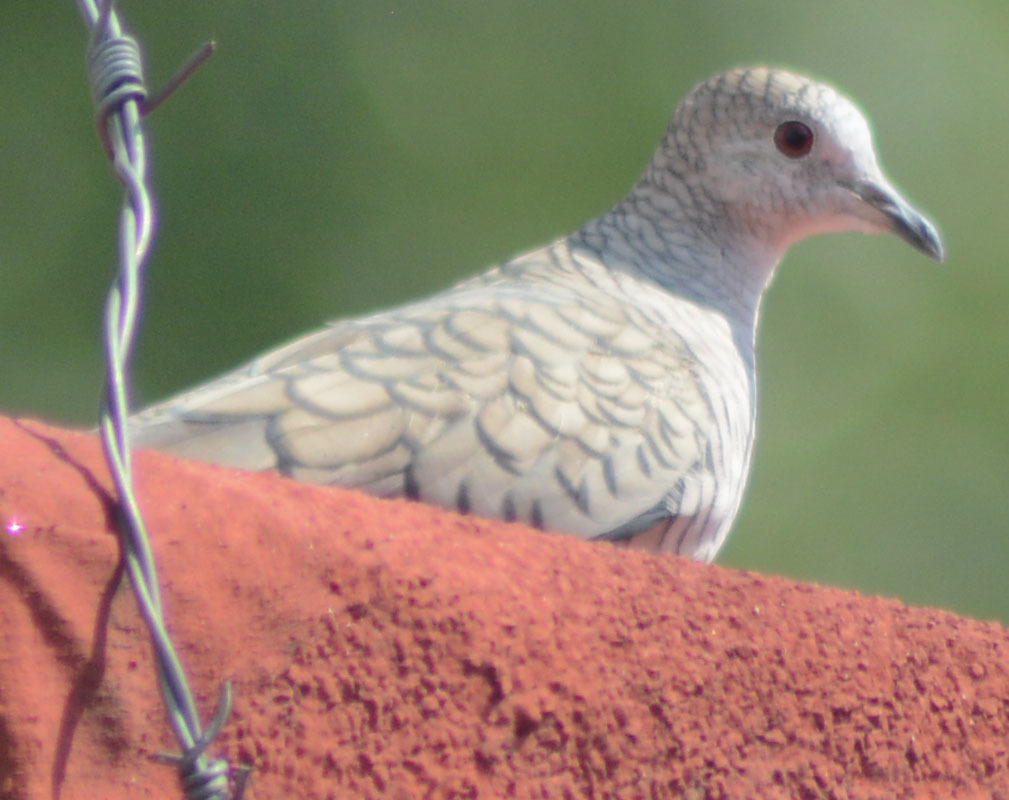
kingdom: Animalia
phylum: Chordata
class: Aves
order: Columbiformes
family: Columbidae
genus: Columbina
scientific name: Columbina inca
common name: Inca dove
